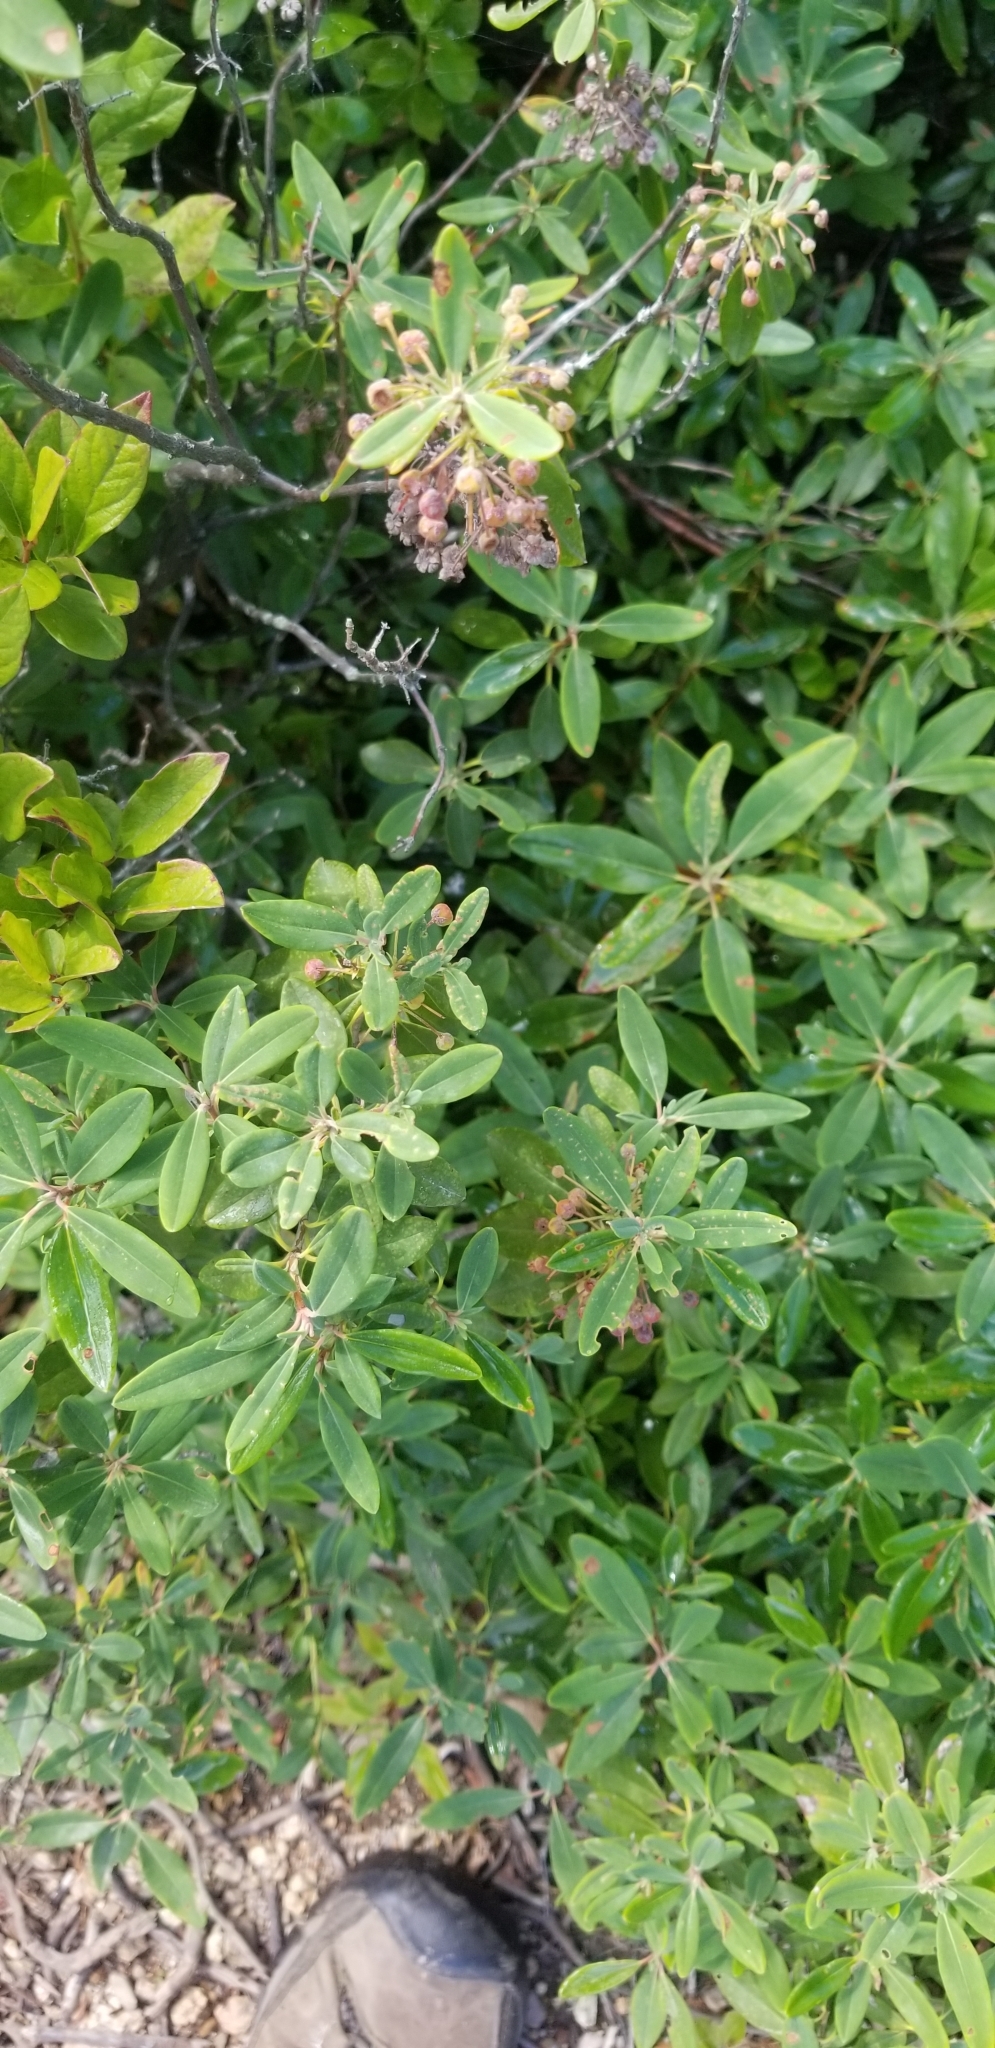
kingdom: Plantae
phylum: Tracheophyta
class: Magnoliopsida
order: Ericales
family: Ericaceae
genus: Kalmia
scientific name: Kalmia angustifolia
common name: Sheep-laurel
